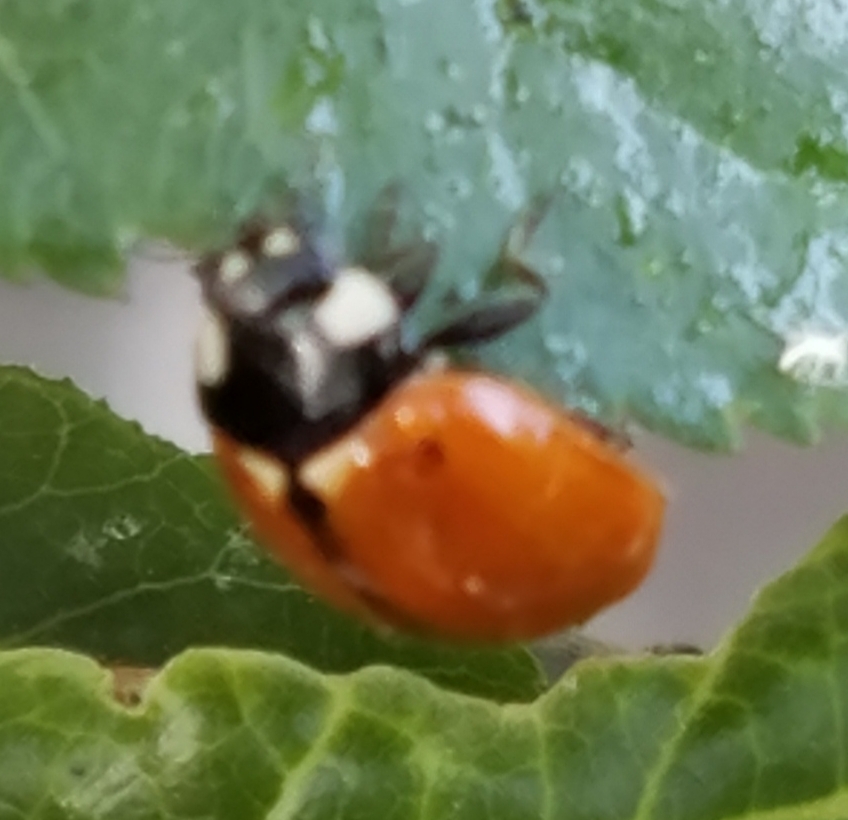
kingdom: Animalia
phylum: Arthropoda
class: Insecta
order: Coleoptera
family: Coccinellidae
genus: Coccinella
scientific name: Coccinella californica
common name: Lady beetle
